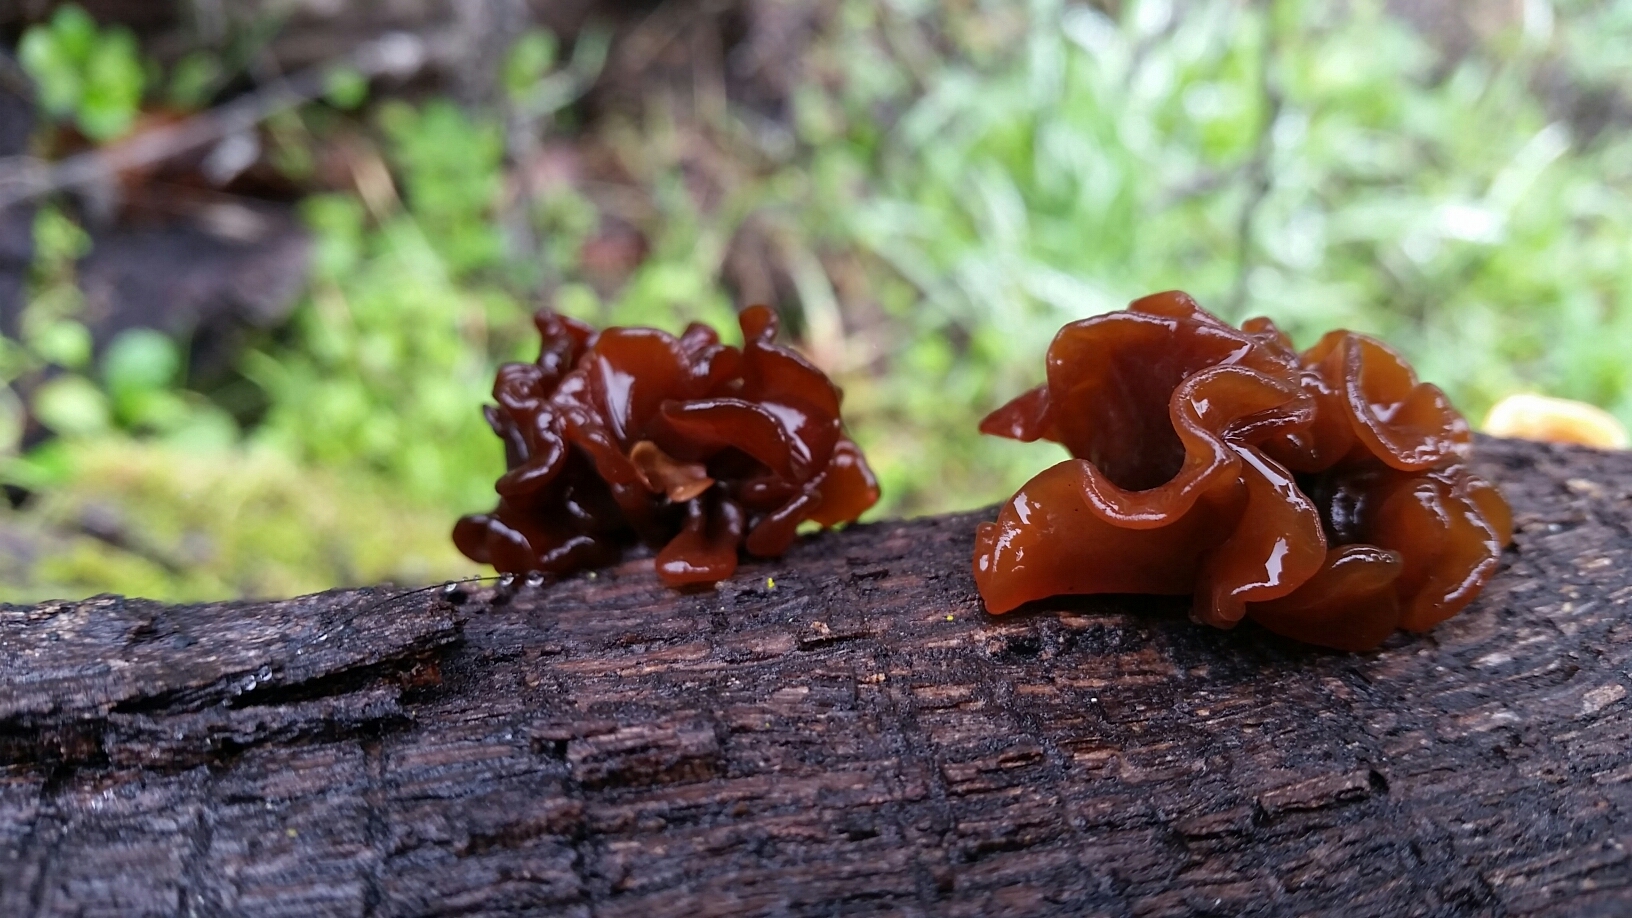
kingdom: Fungi
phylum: Basidiomycota
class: Tremellomycetes
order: Tremellales
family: Tremellaceae
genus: Phaeotremella
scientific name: Phaeotremella foliacea
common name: Leafy brain
